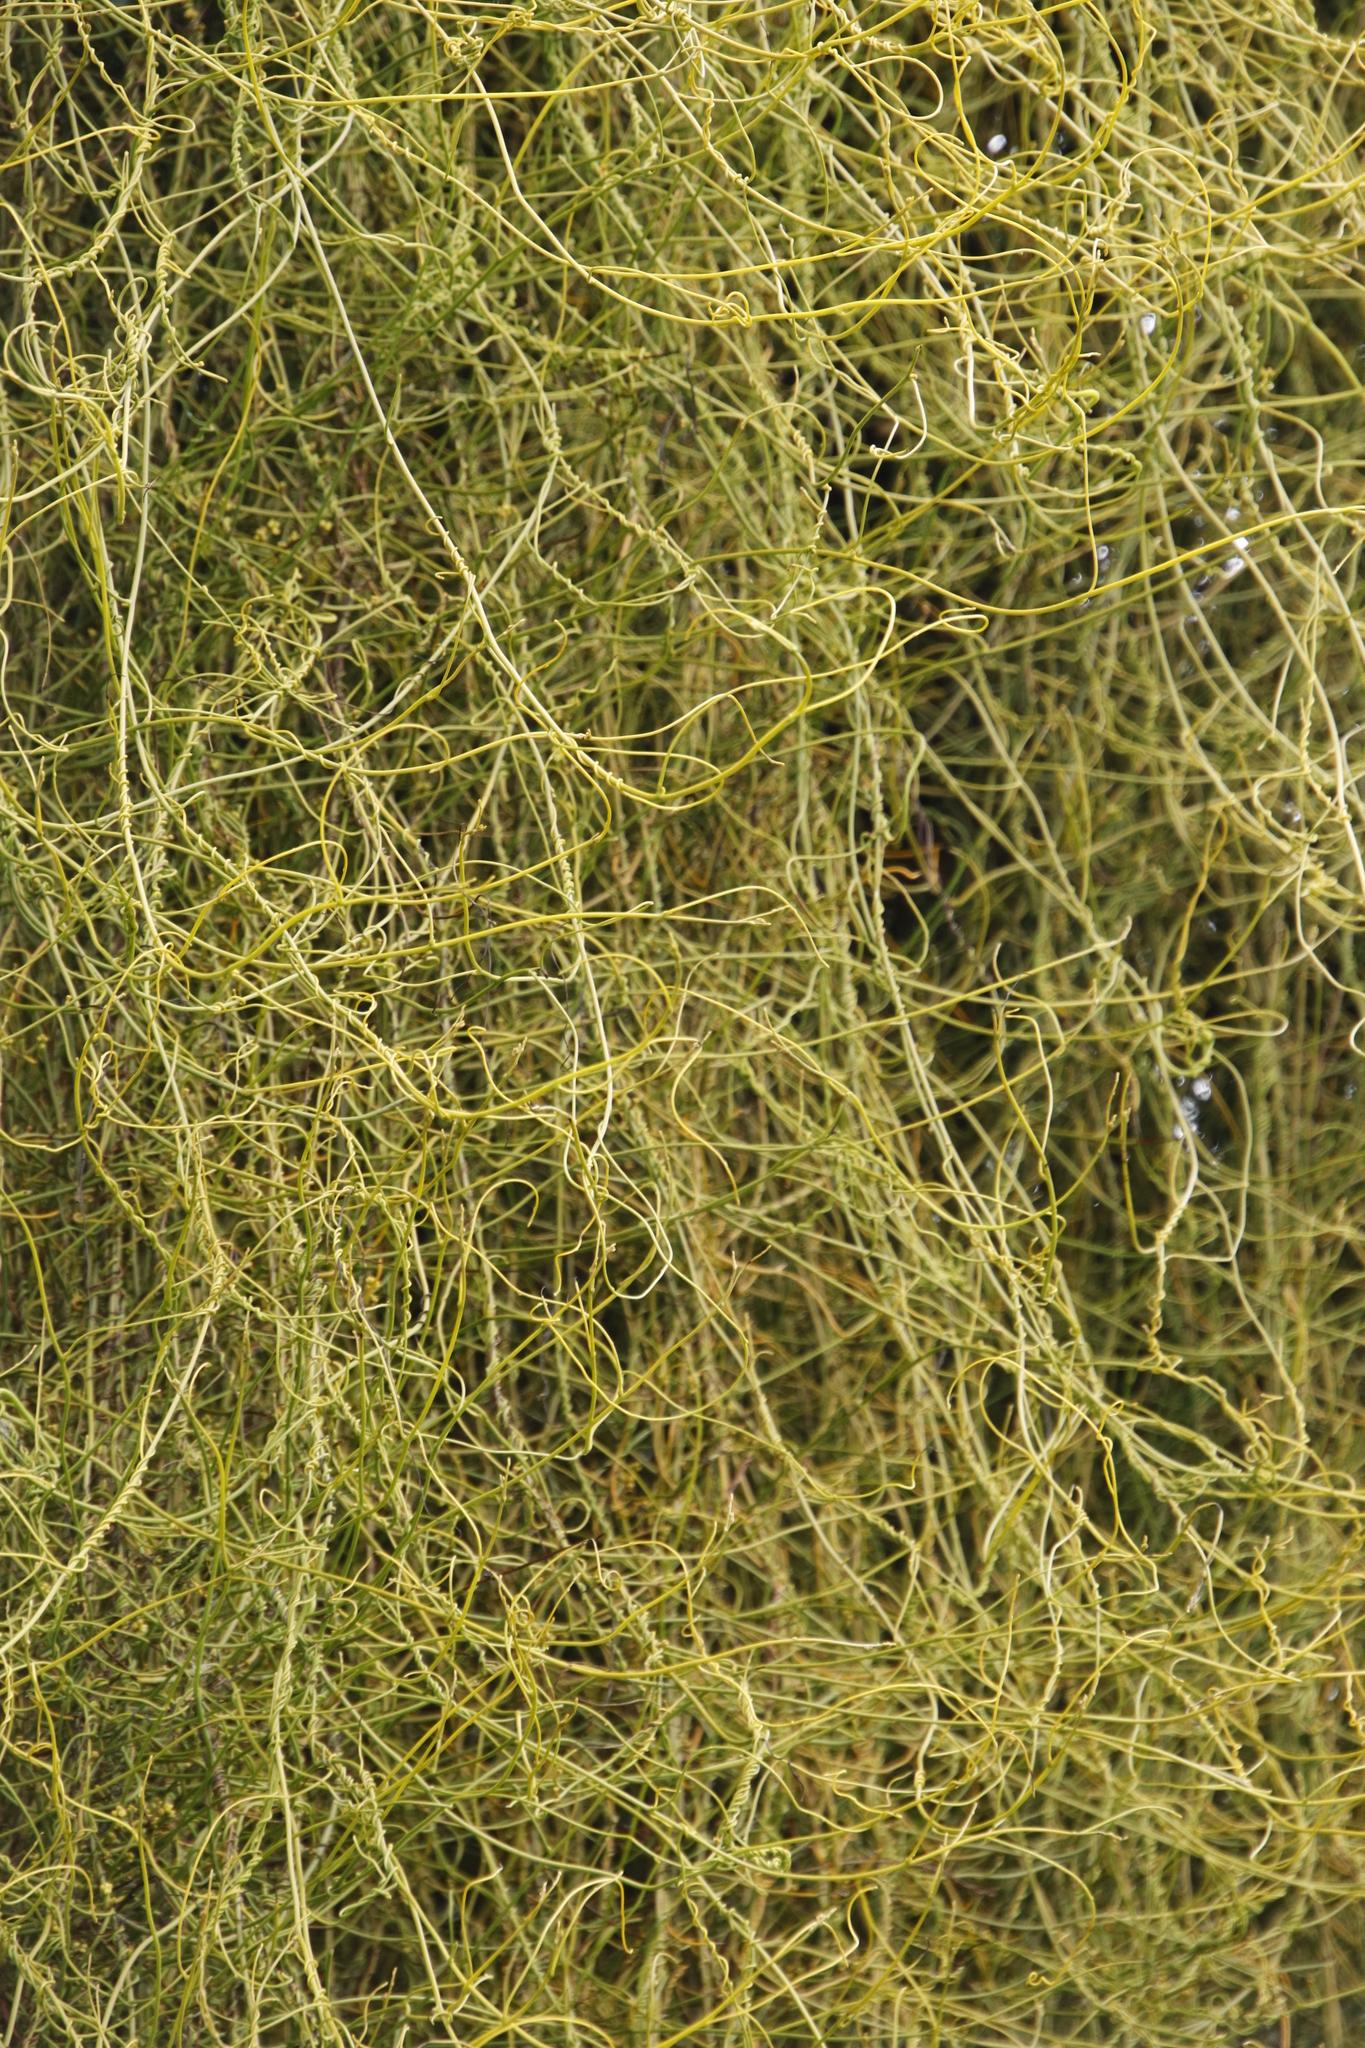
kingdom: Plantae
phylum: Tracheophyta
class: Magnoliopsida
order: Laurales
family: Lauraceae
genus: Cassytha
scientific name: Cassytha ciliolata
